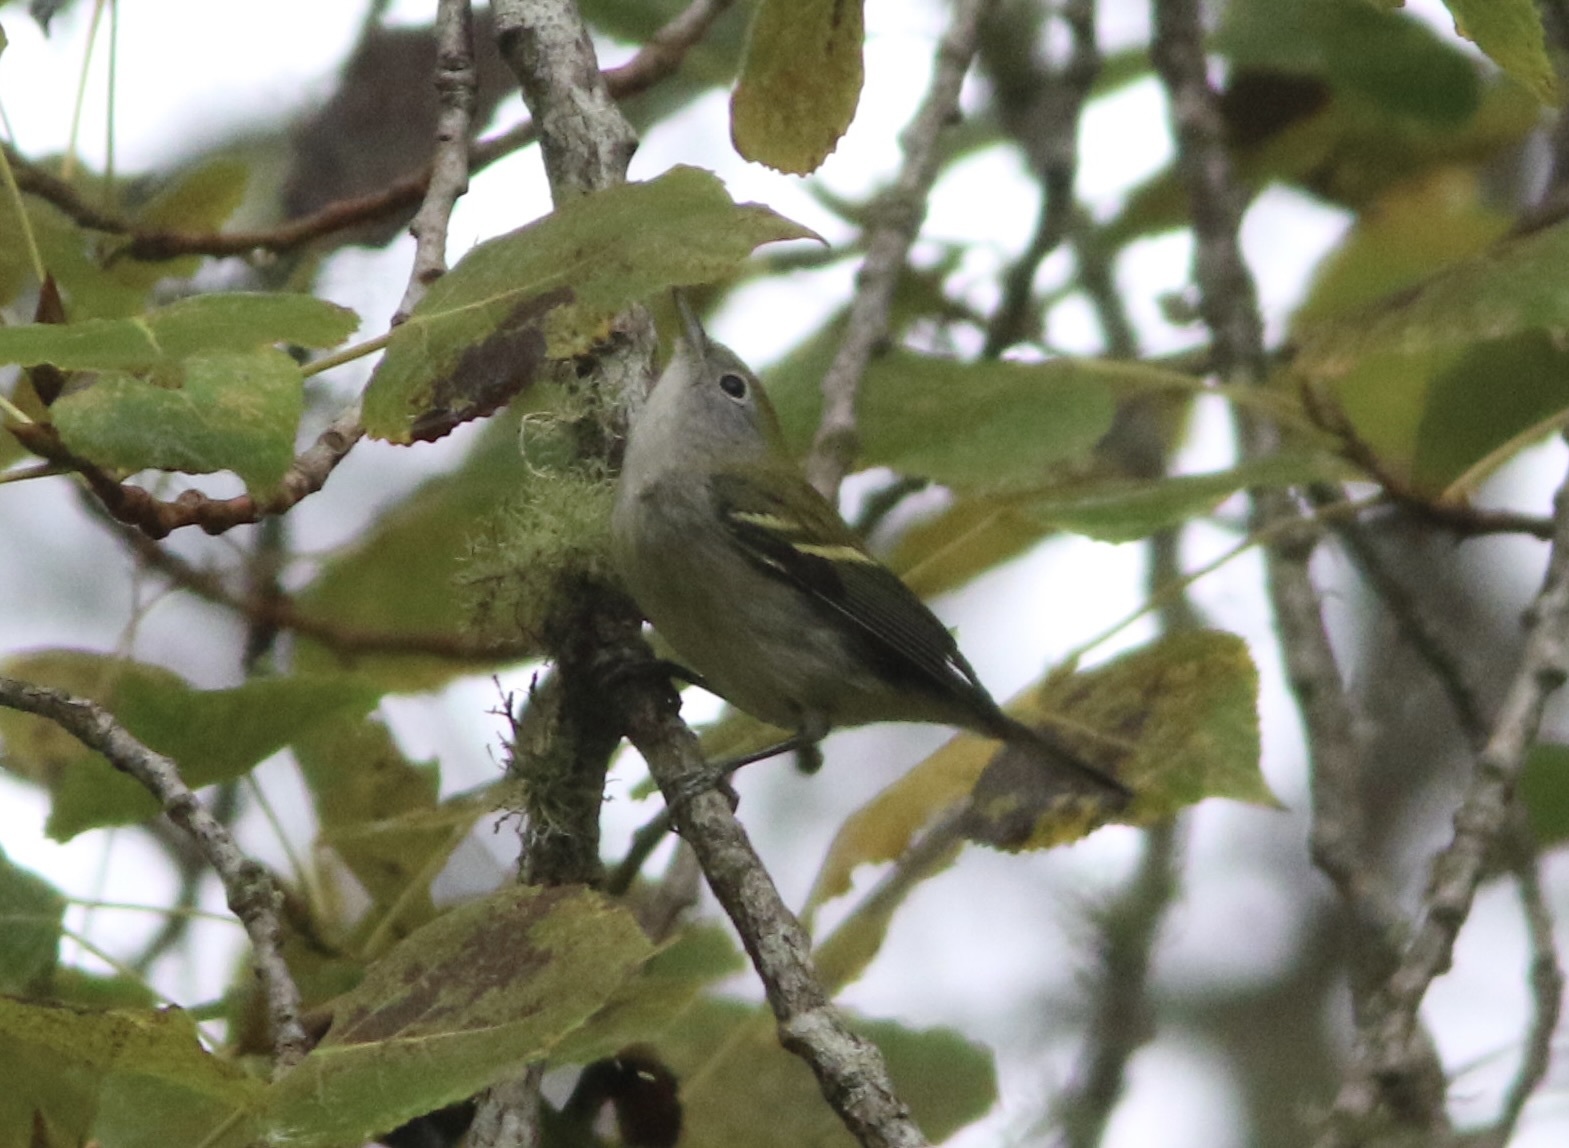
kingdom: Animalia
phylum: Chordata
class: Aves
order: Passeriformes
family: Parulidae
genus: Setophaga
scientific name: Setophaga pensylvanica
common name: Chestnut-sided warbler
